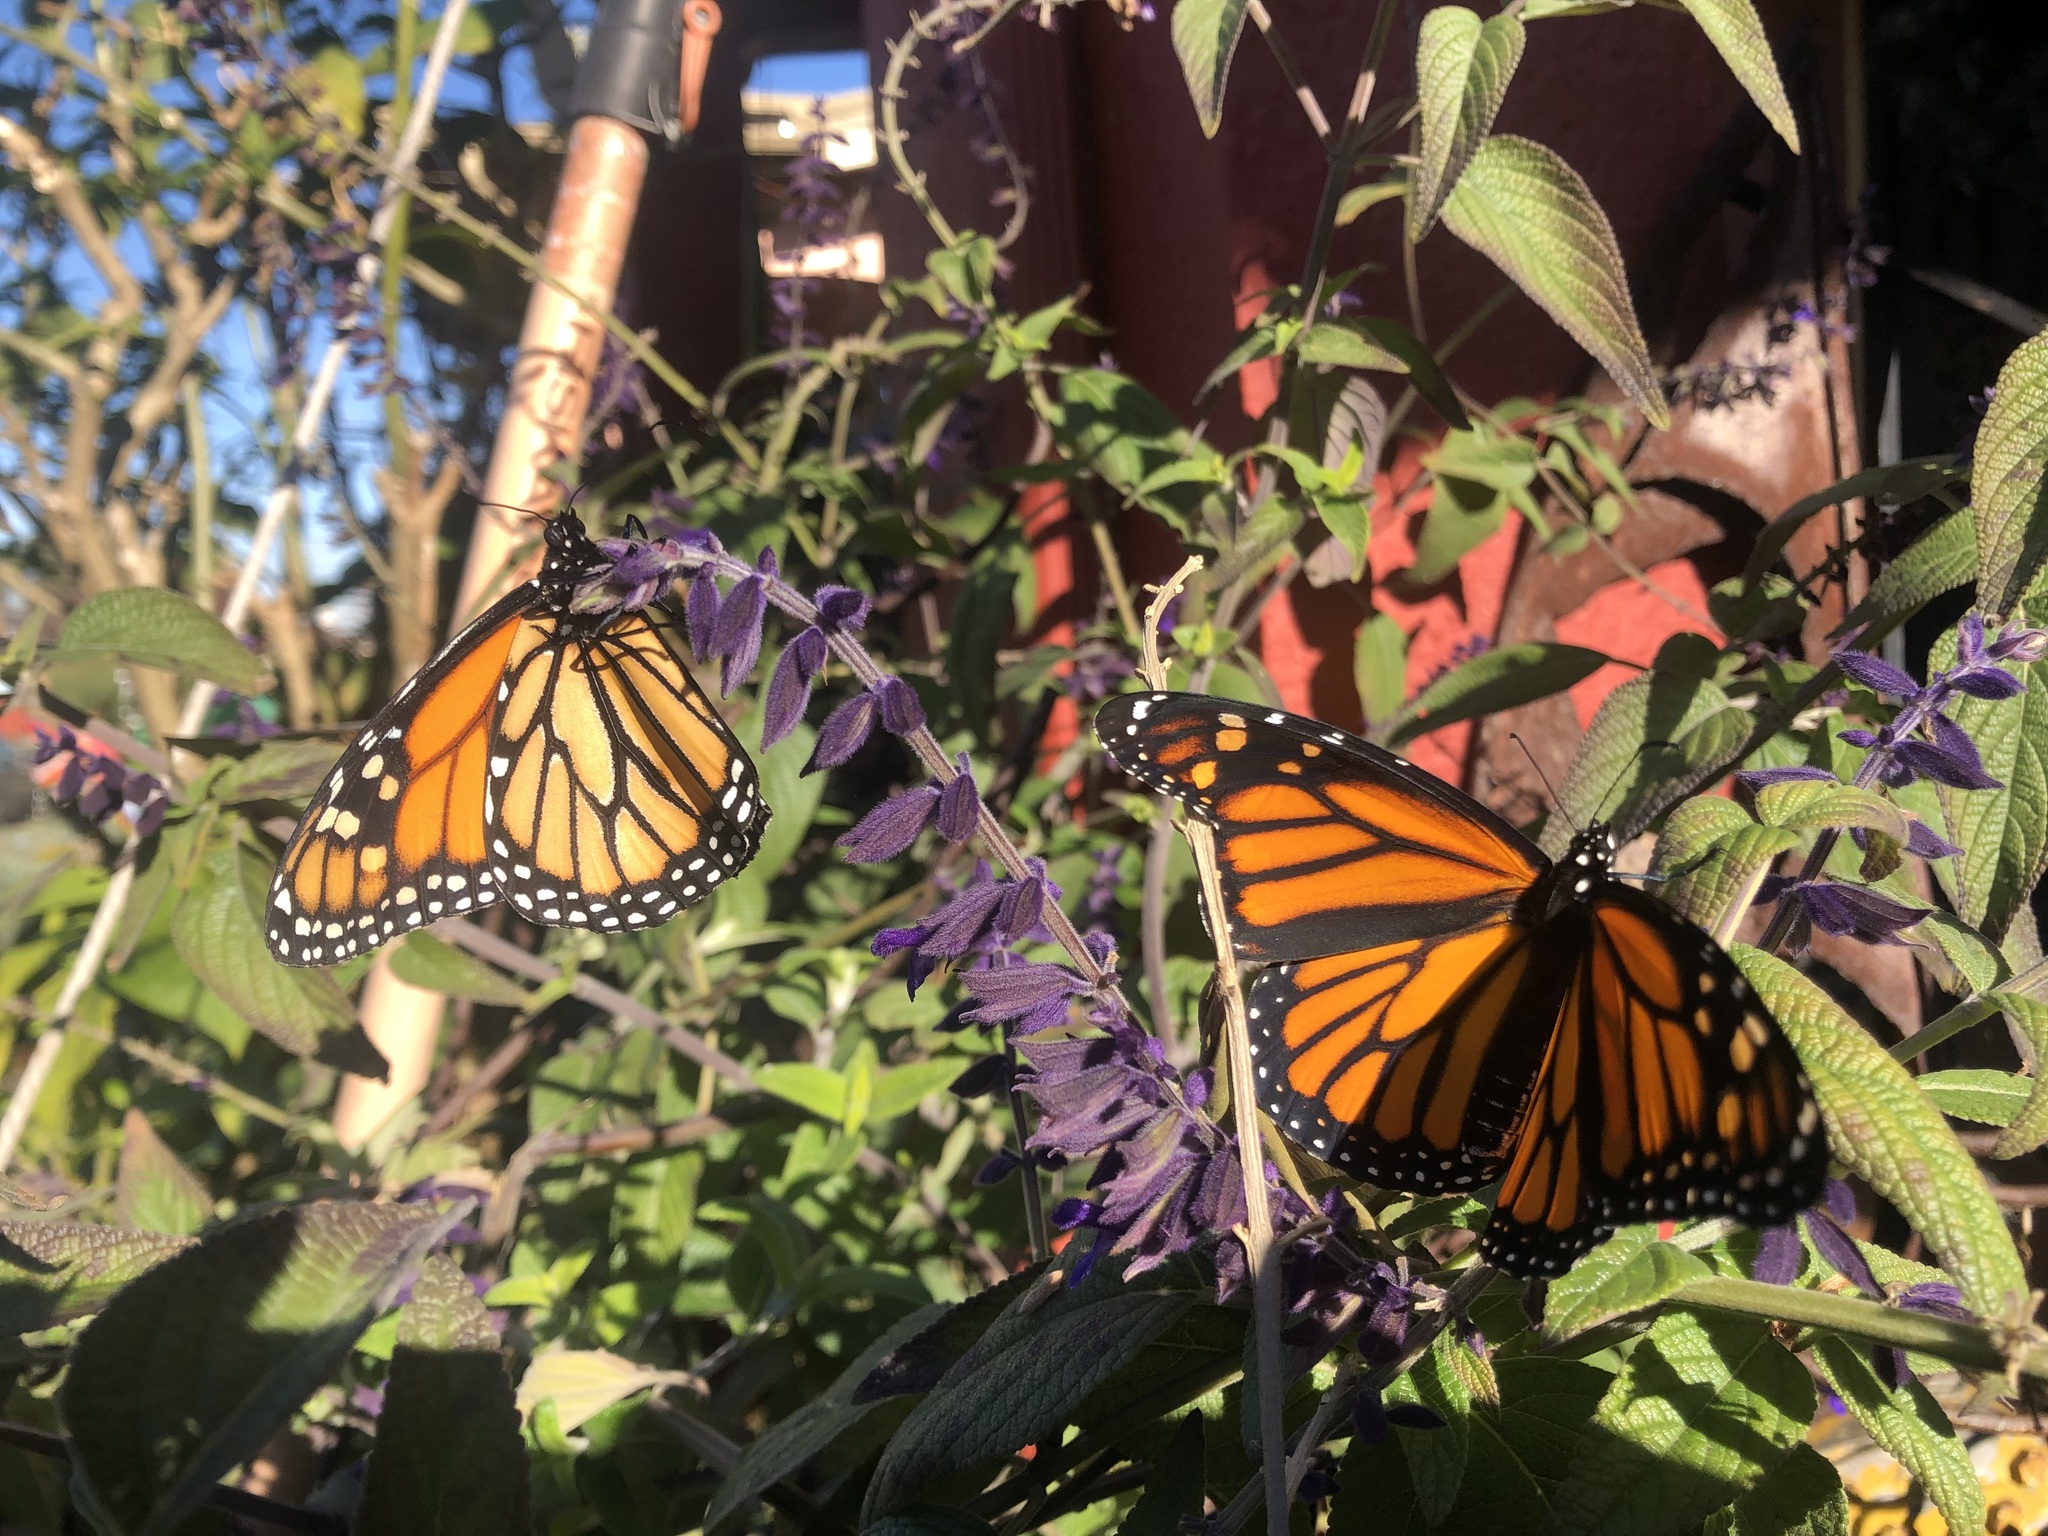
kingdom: Animalia
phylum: Arthropoda
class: Insecta
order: Lepidoptera
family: Nymphalidae
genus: Danaus
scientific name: Danaus plexippus
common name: Monarch
